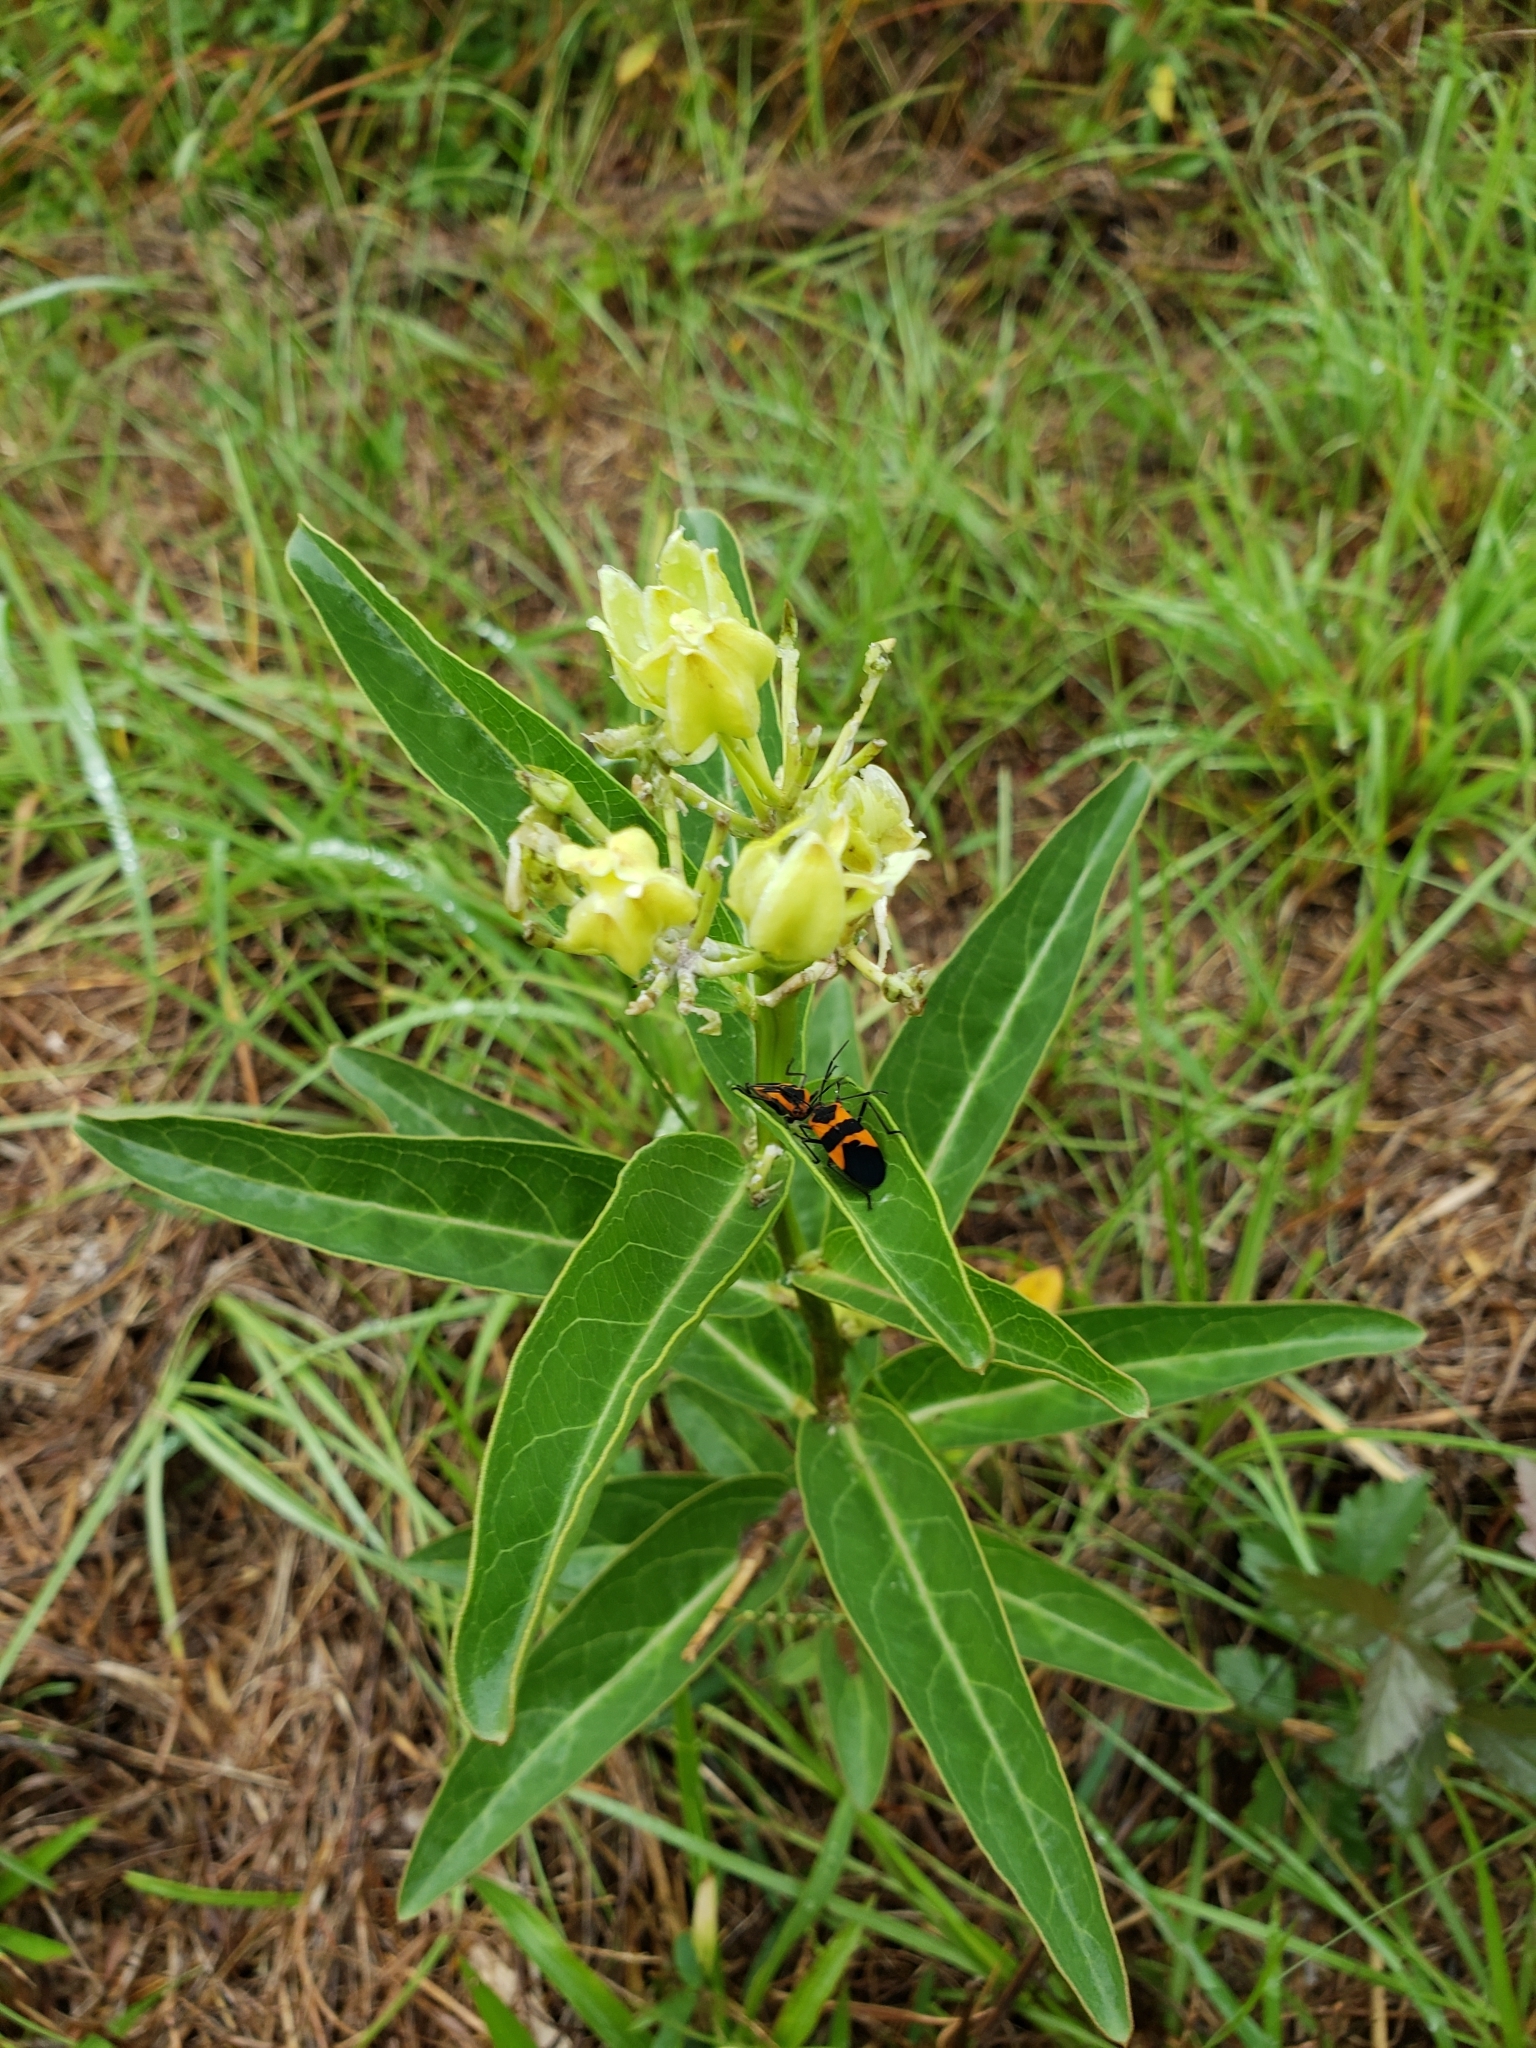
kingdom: Plantae
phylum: Tracheophyta
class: Magnoliopsida
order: Gentianales
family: Apocynaceae
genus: Asclepias
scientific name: Asclepias viridis
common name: Antelope-horns
